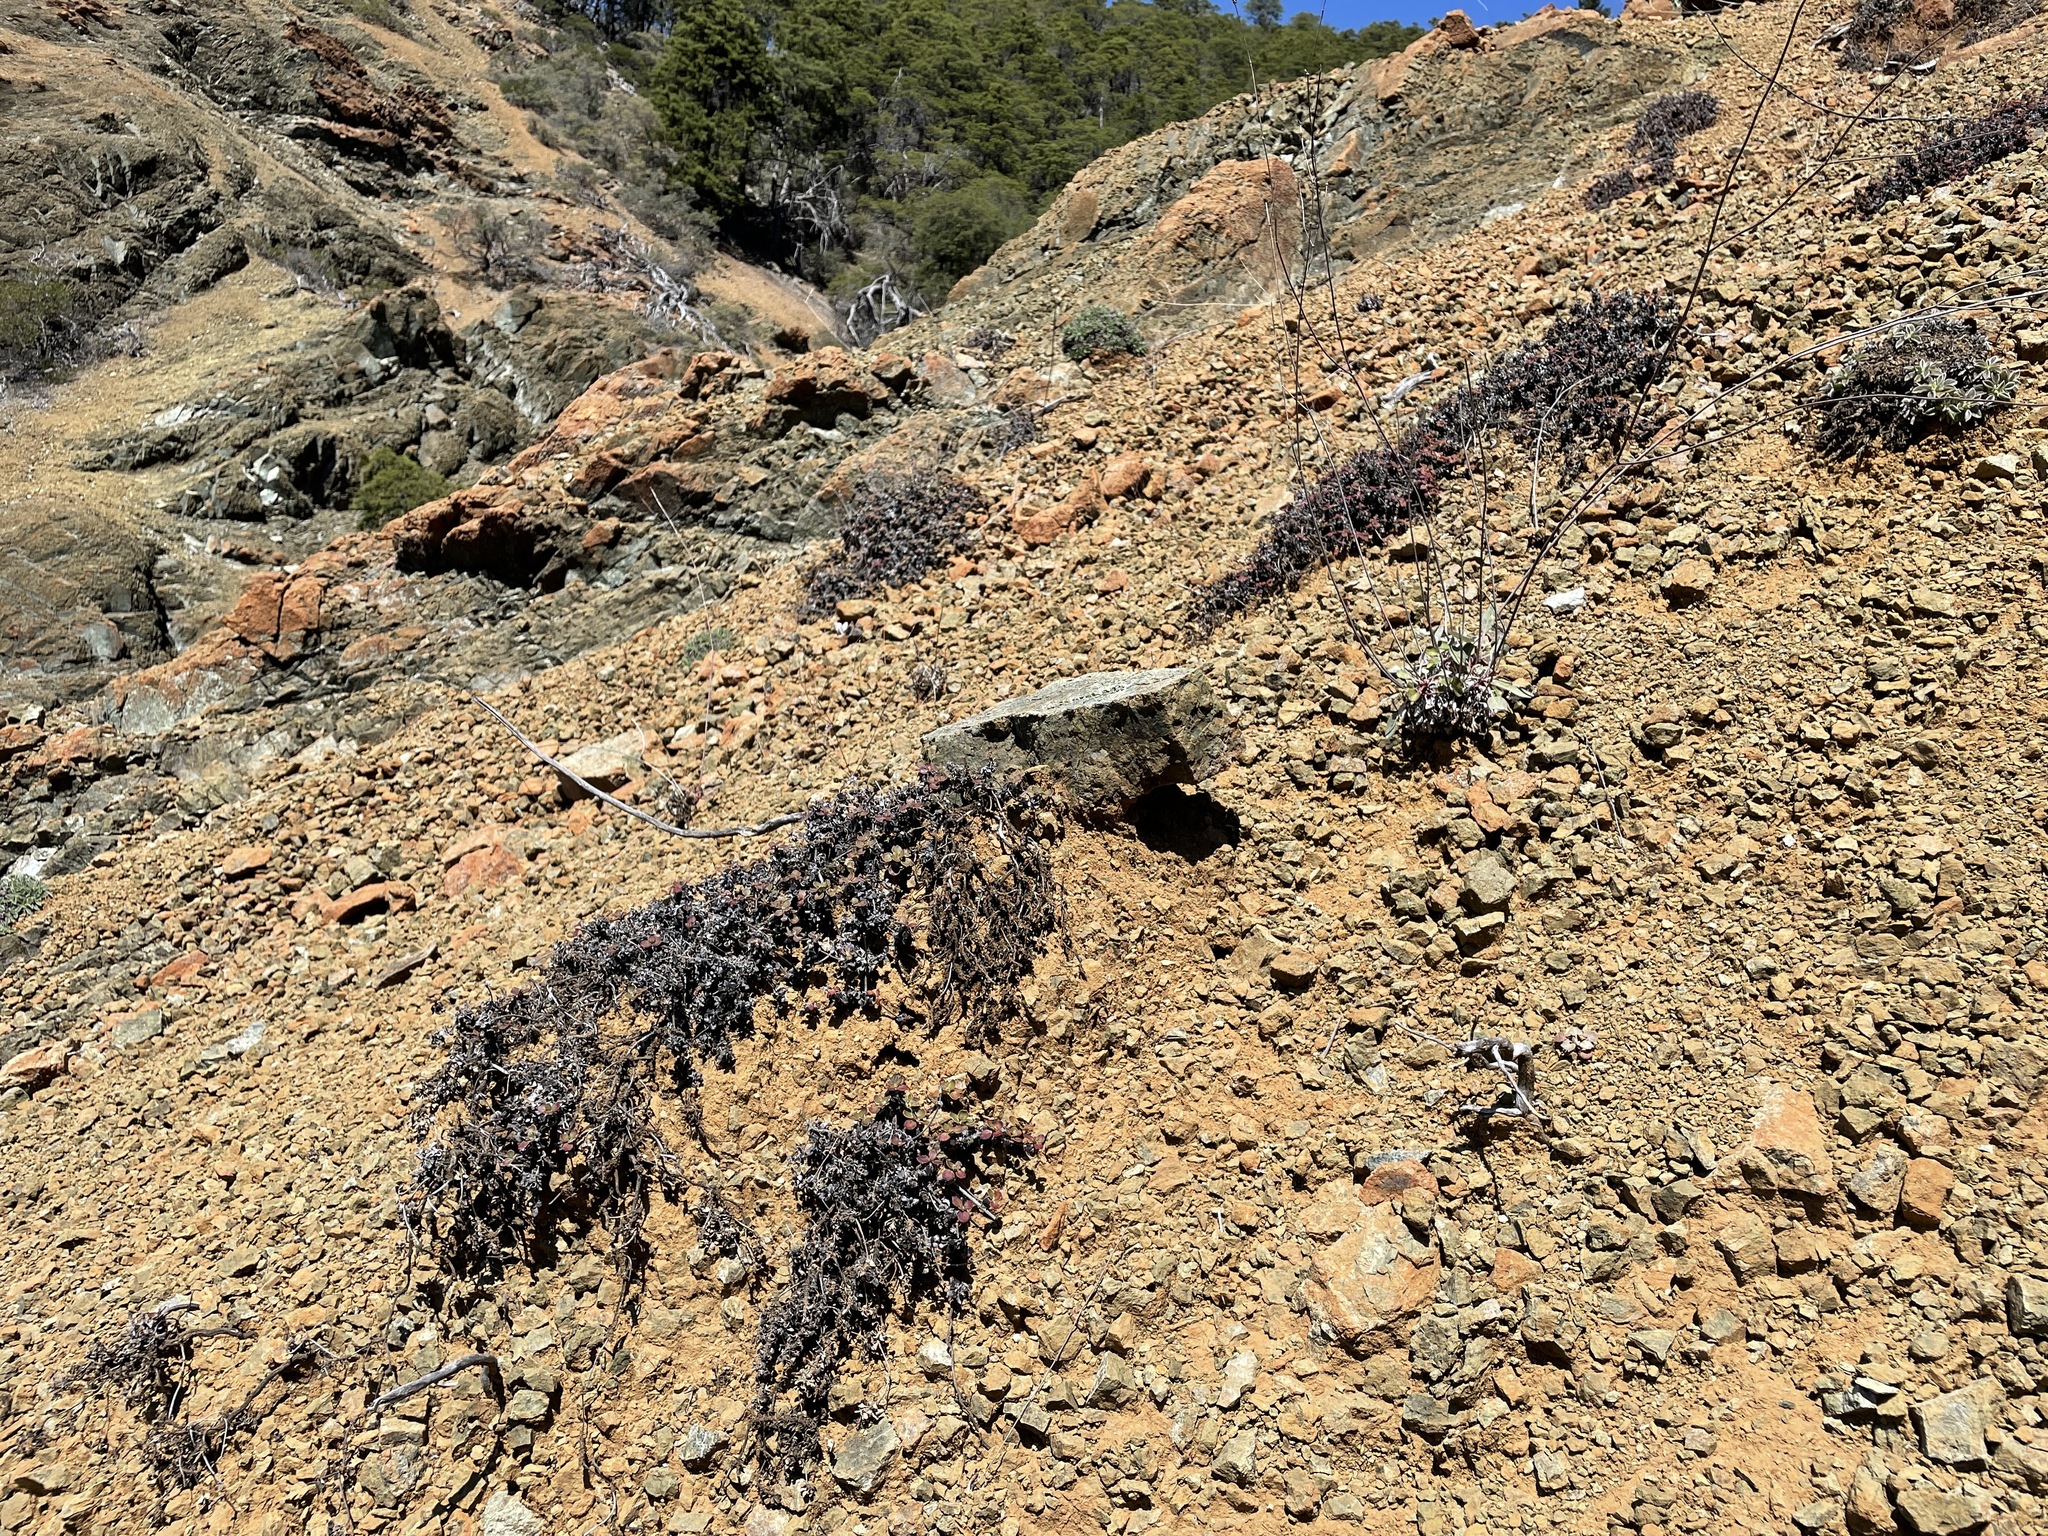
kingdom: Plantae
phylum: Tracheophyta
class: Magnoliopsida
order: Caryophyllales
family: Polygonaceae
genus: Eriogonum
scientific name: Eriogonum cedrorum
